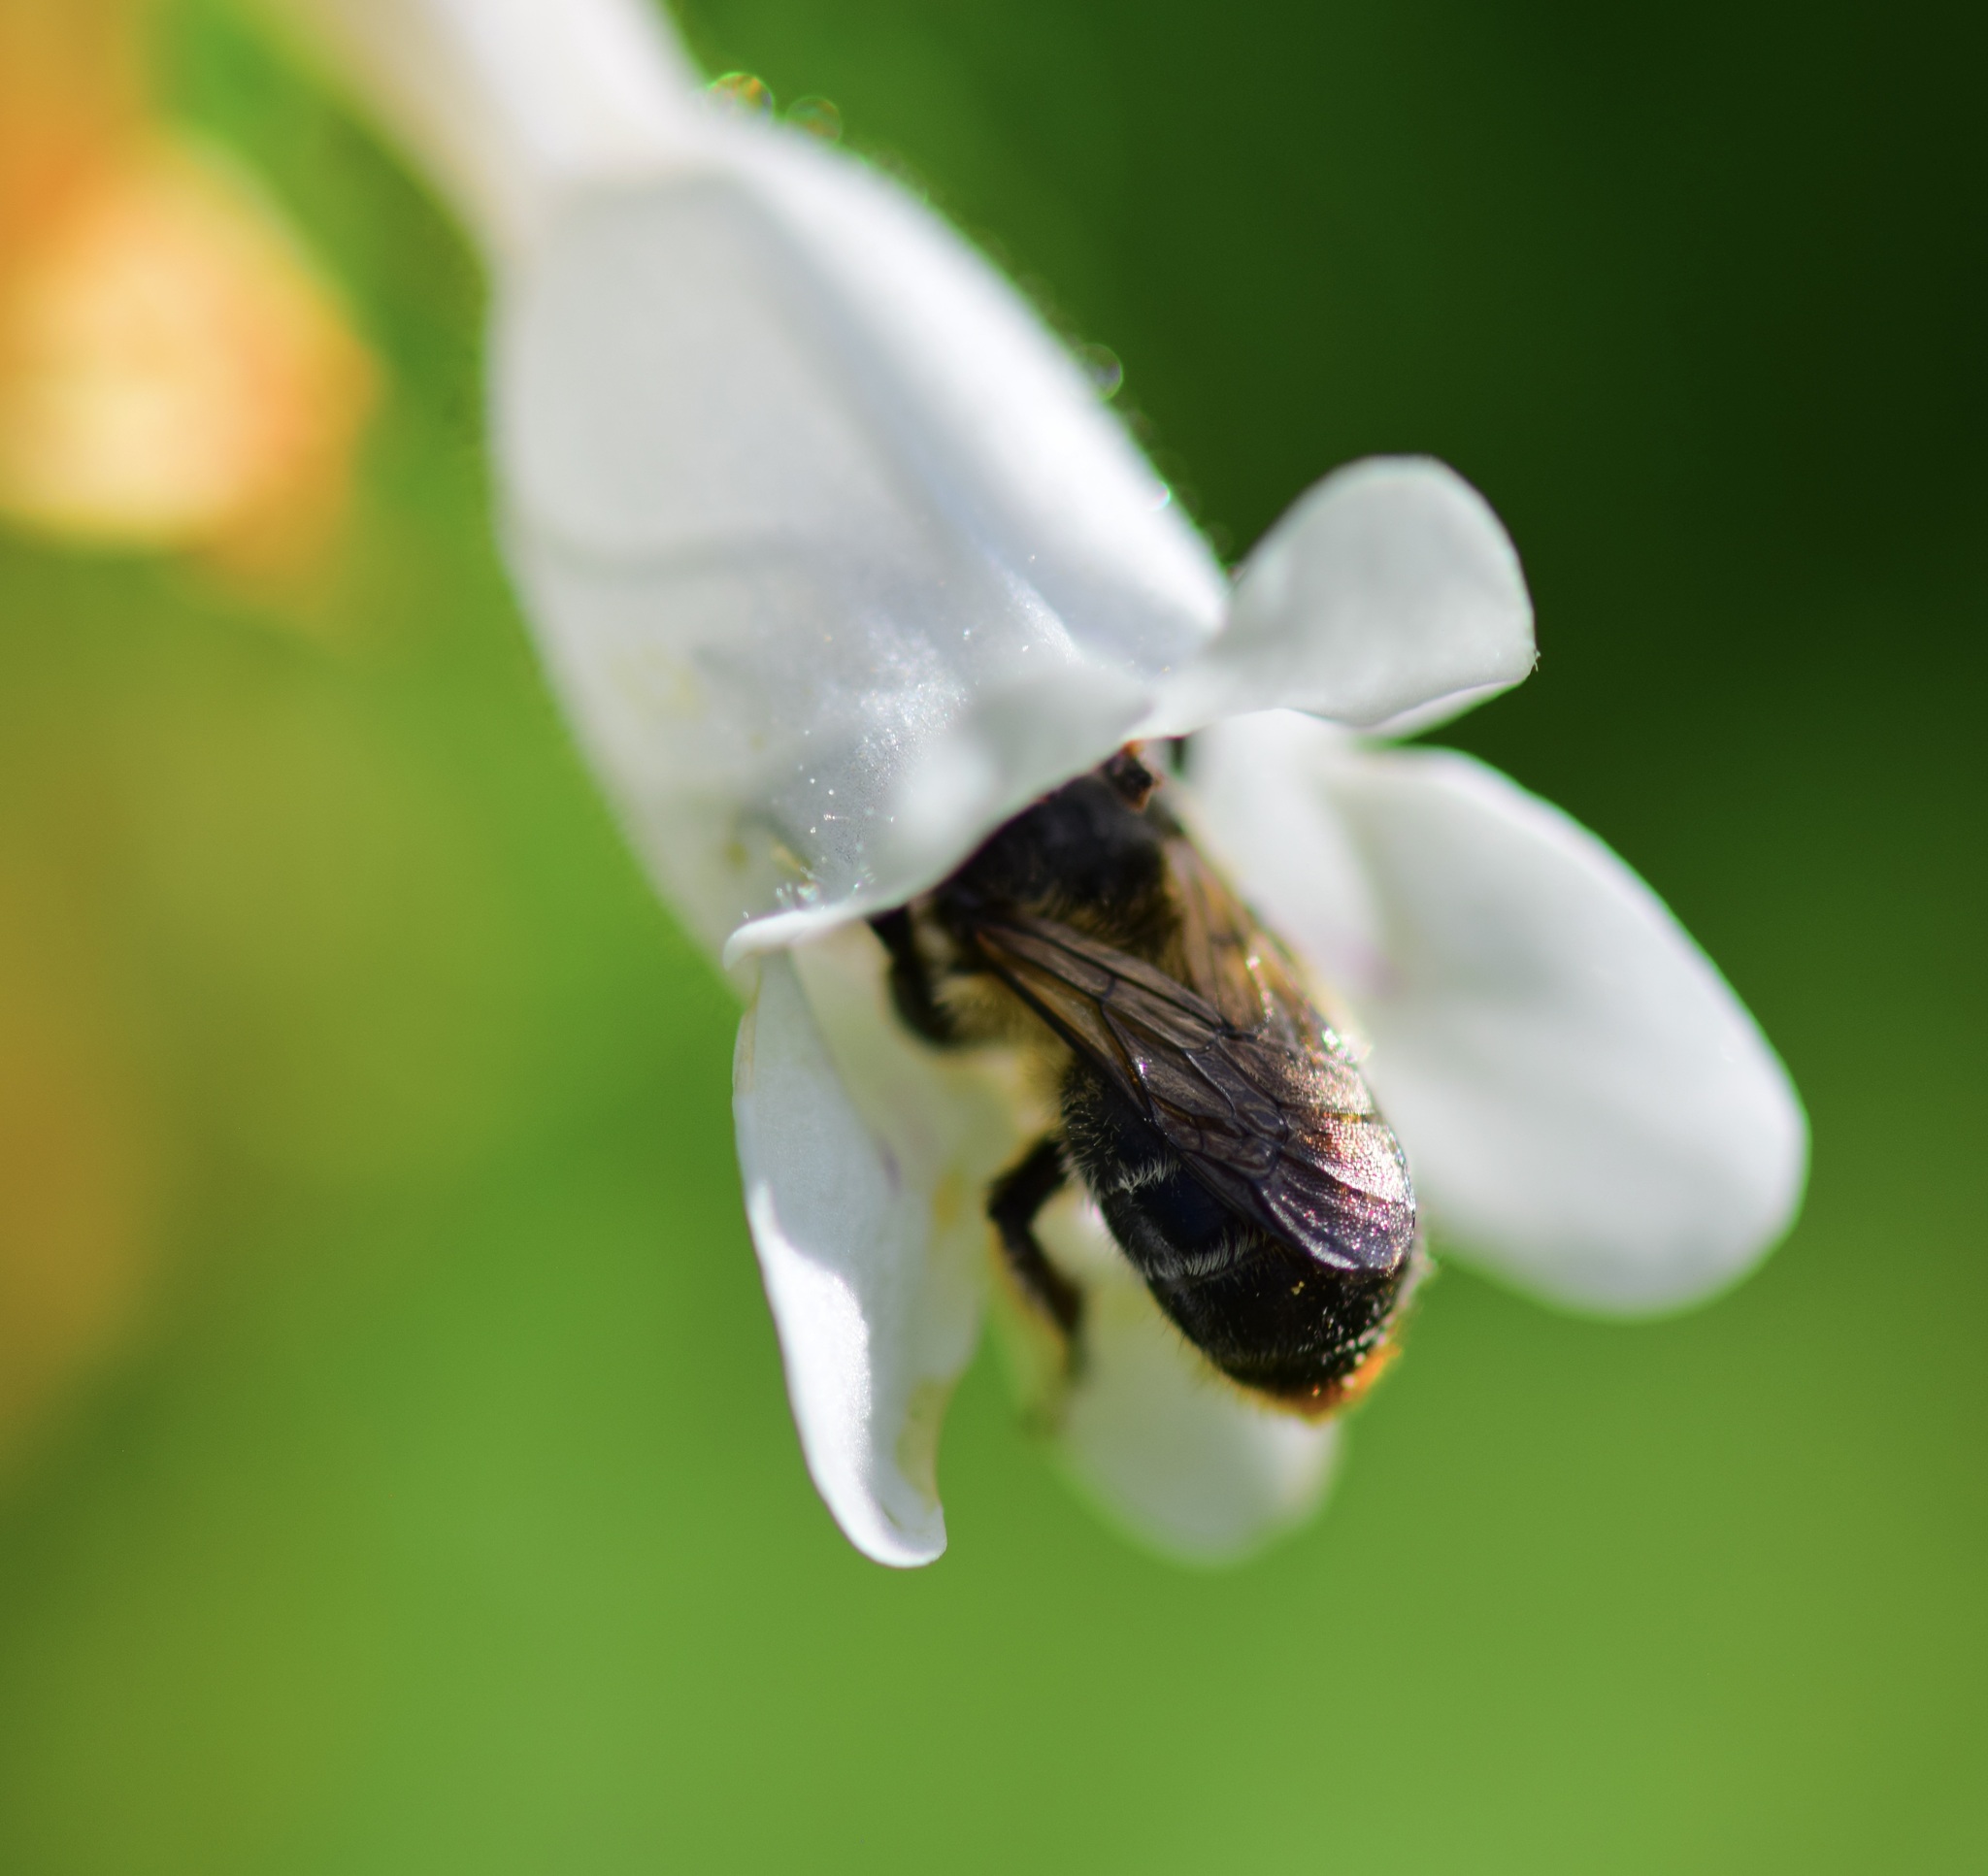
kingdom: Animalia
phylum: Arthropoda
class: Insecta
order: Hymenoptera
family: Apidae
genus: Anthophora
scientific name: Anthophora terminalis
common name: Orange-tipped wood-digger bee
